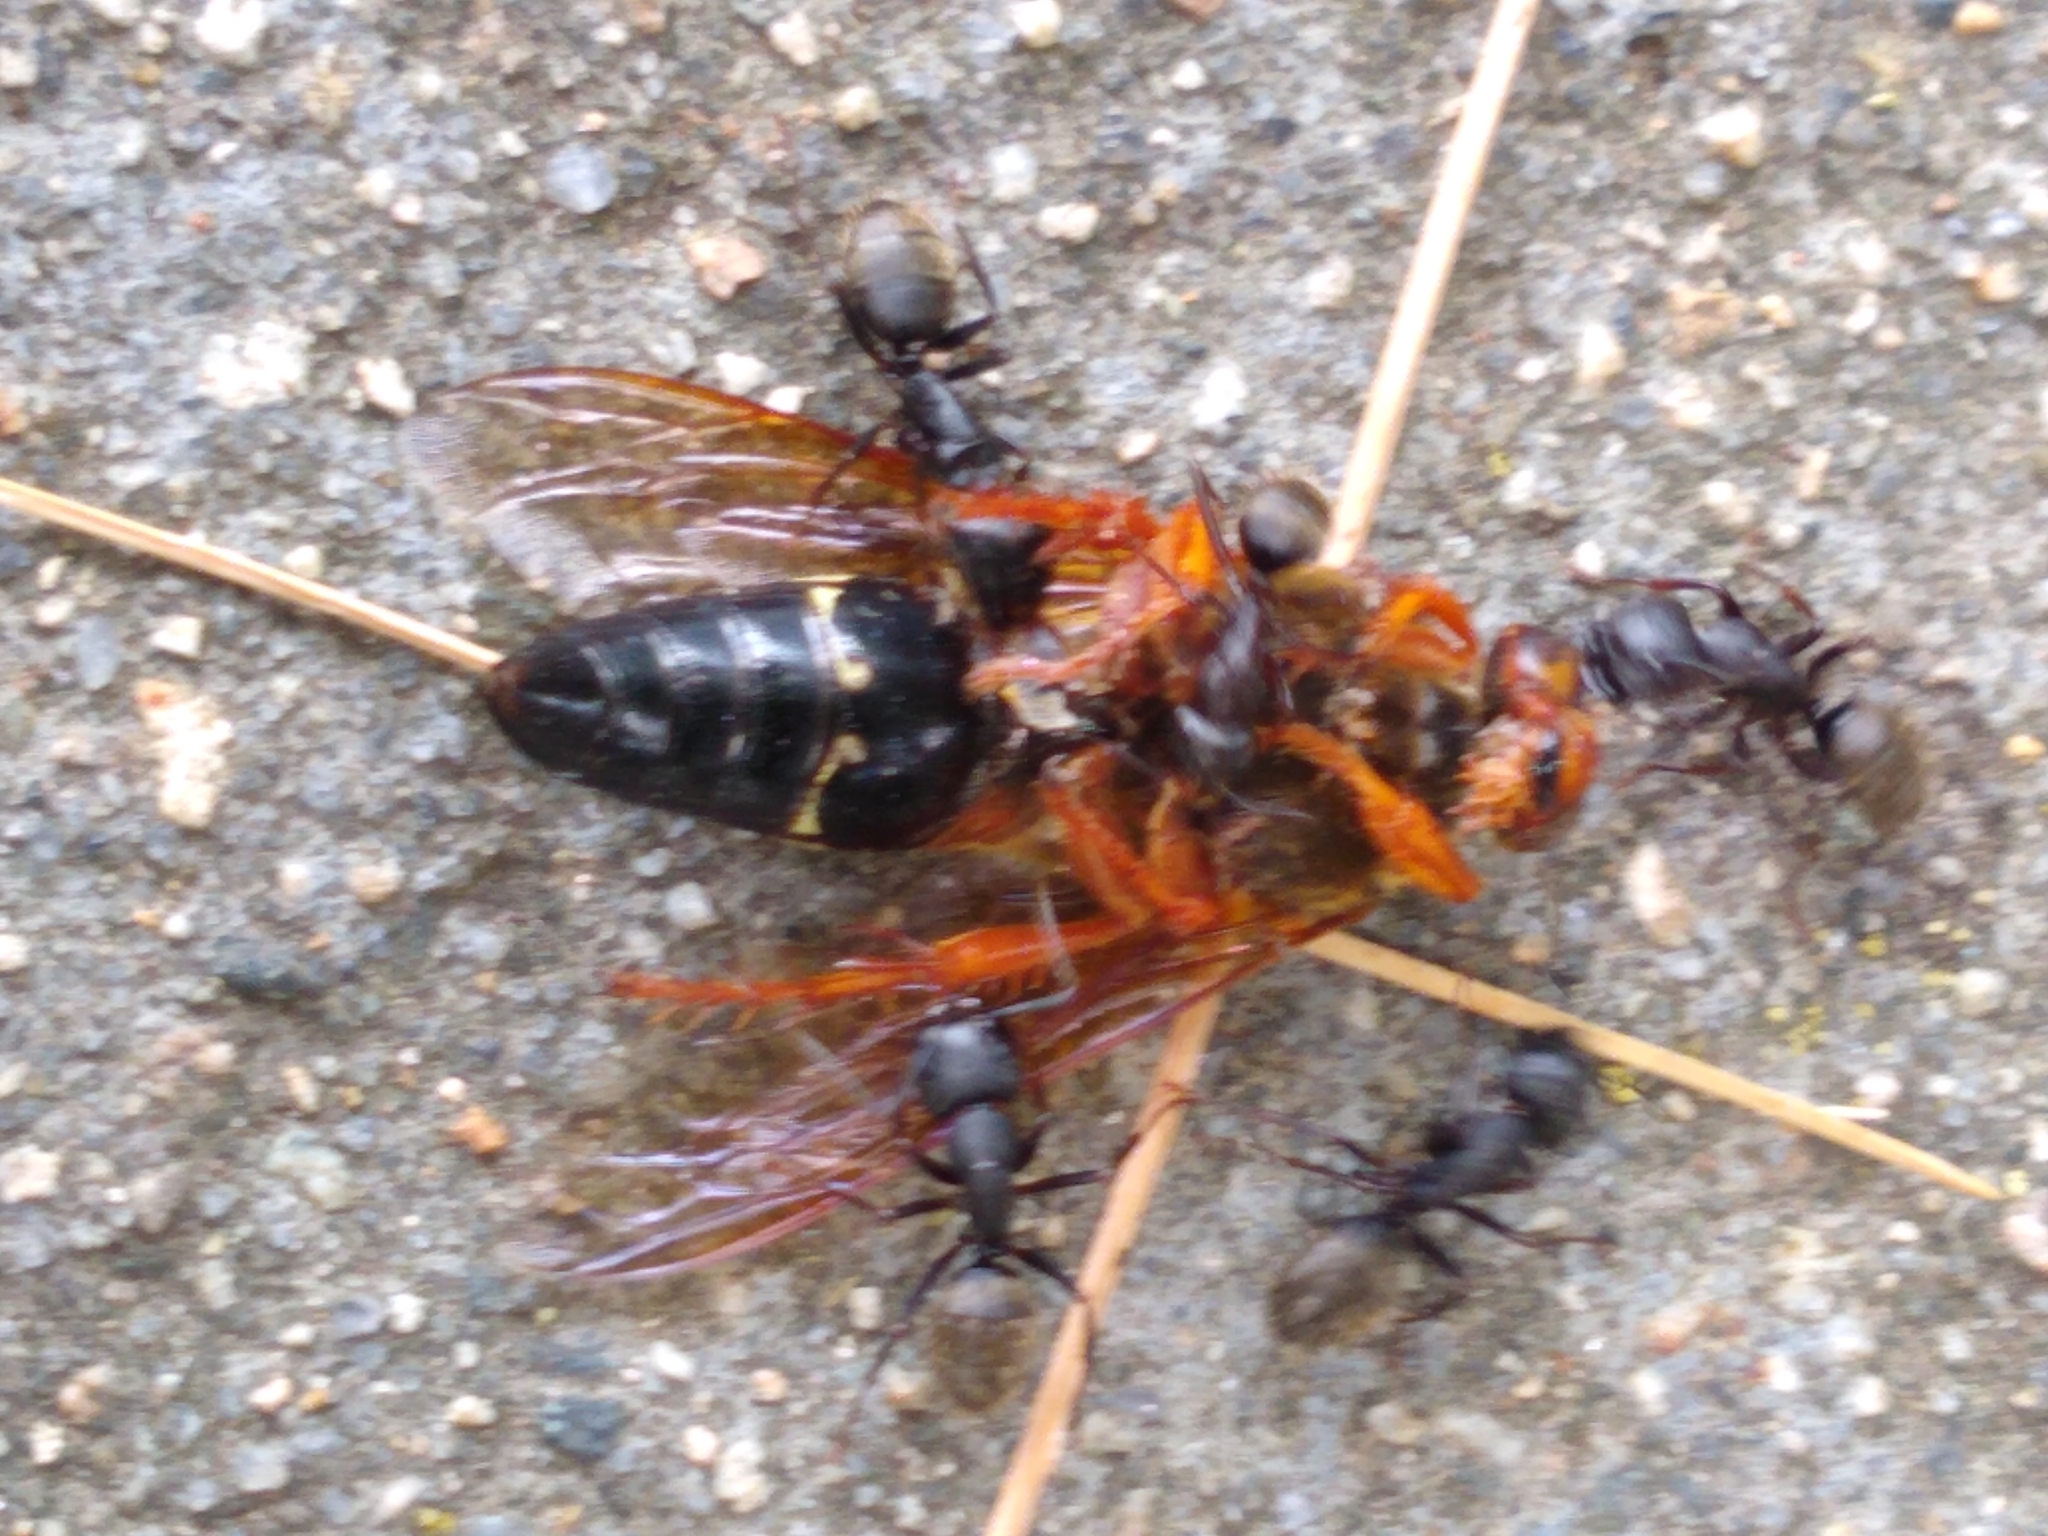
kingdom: Animalia
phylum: Arthropoda
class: Insecta
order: Hymenoptera
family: Crabronidae
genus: Sphecius
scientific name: Sphecius speciosus
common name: Cicada killer
